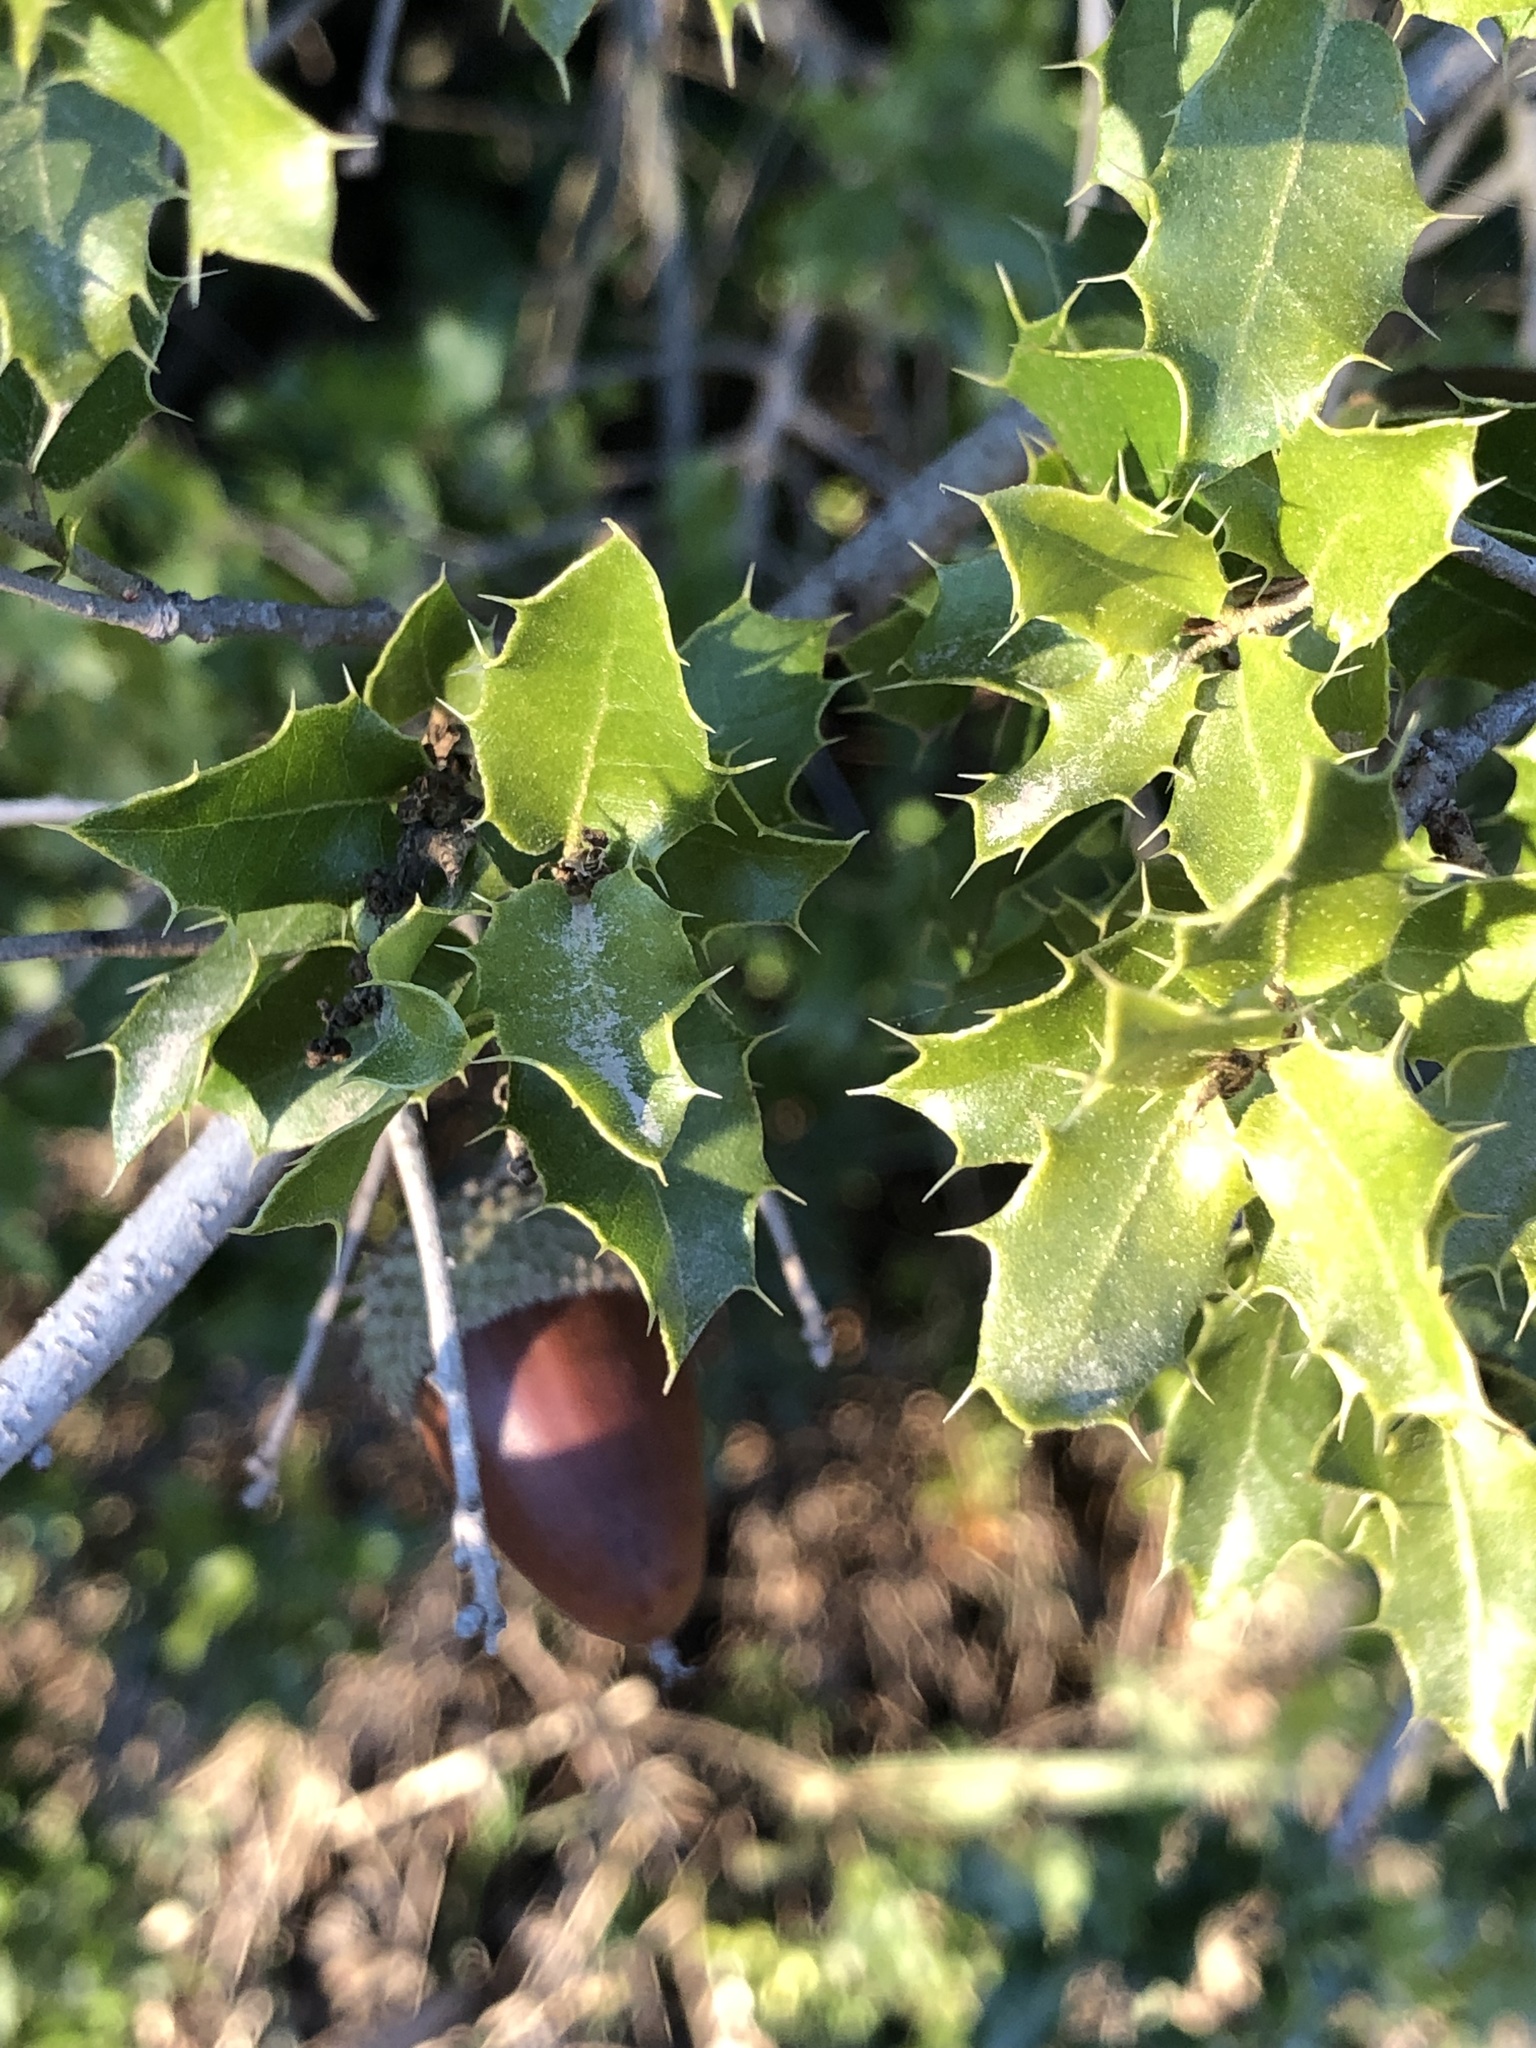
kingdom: Plantae
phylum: Tracheophyta
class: Magnoliopsida
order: Fagales
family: Fagaceae
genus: Quercus
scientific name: Quercus coccifera
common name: Kermes oak
